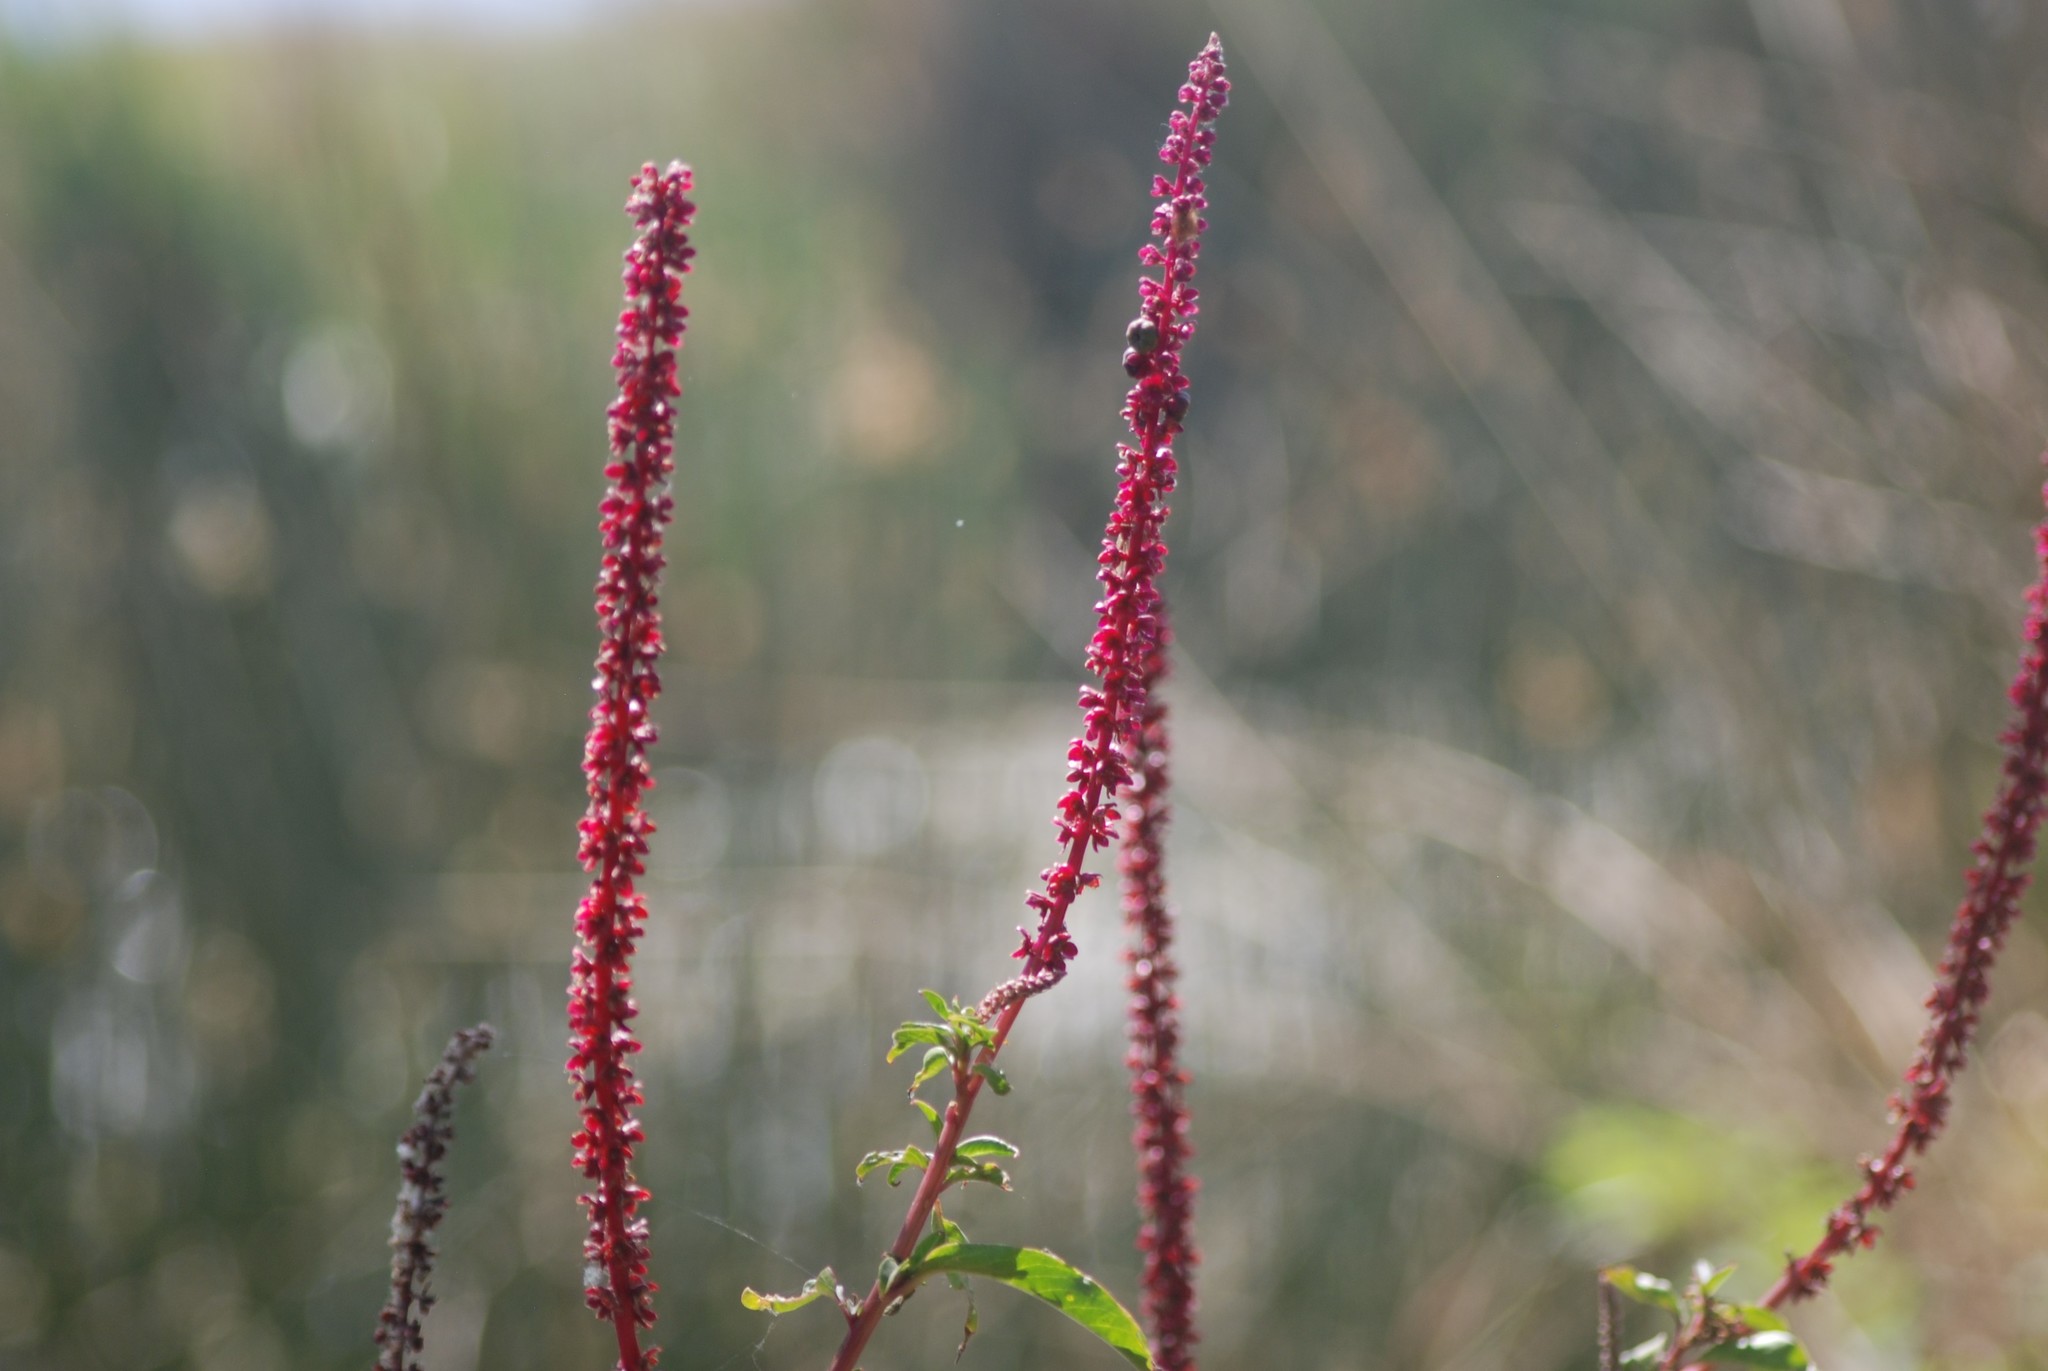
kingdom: Plantae
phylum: Tracheophyta
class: Magnoliopsida
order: Caryophyllales
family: Phytolaccaceae
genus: Phytolacca
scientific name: Phytolacca icosandra
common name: Button pokeweed
